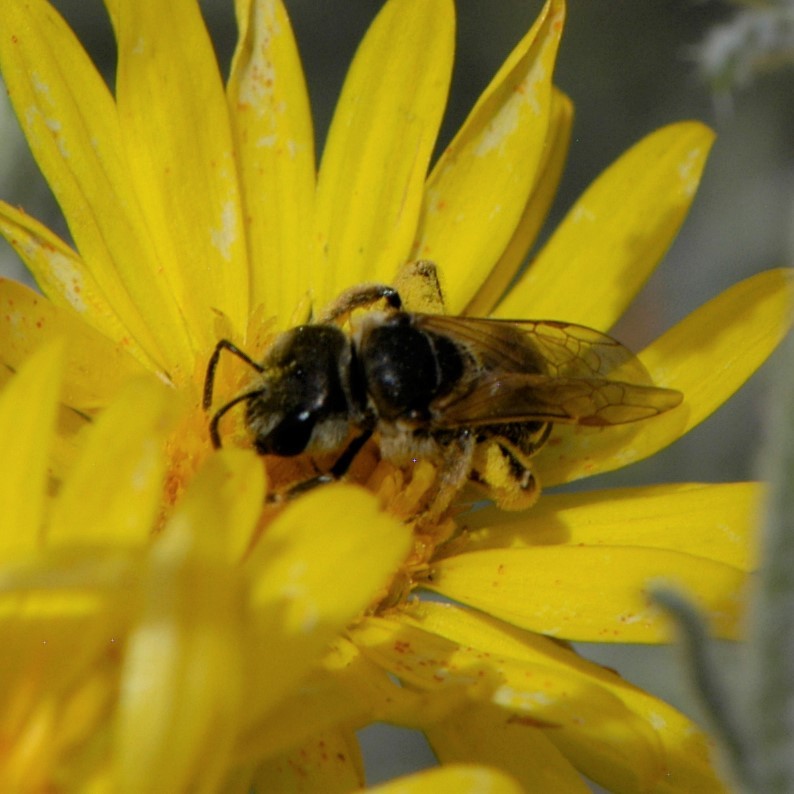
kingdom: Animalia
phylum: Arthropoda
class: Insecta
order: Hymenoptera
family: Halictidae
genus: Halictus
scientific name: Halictus ligatus
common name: Ligated furrow bee
